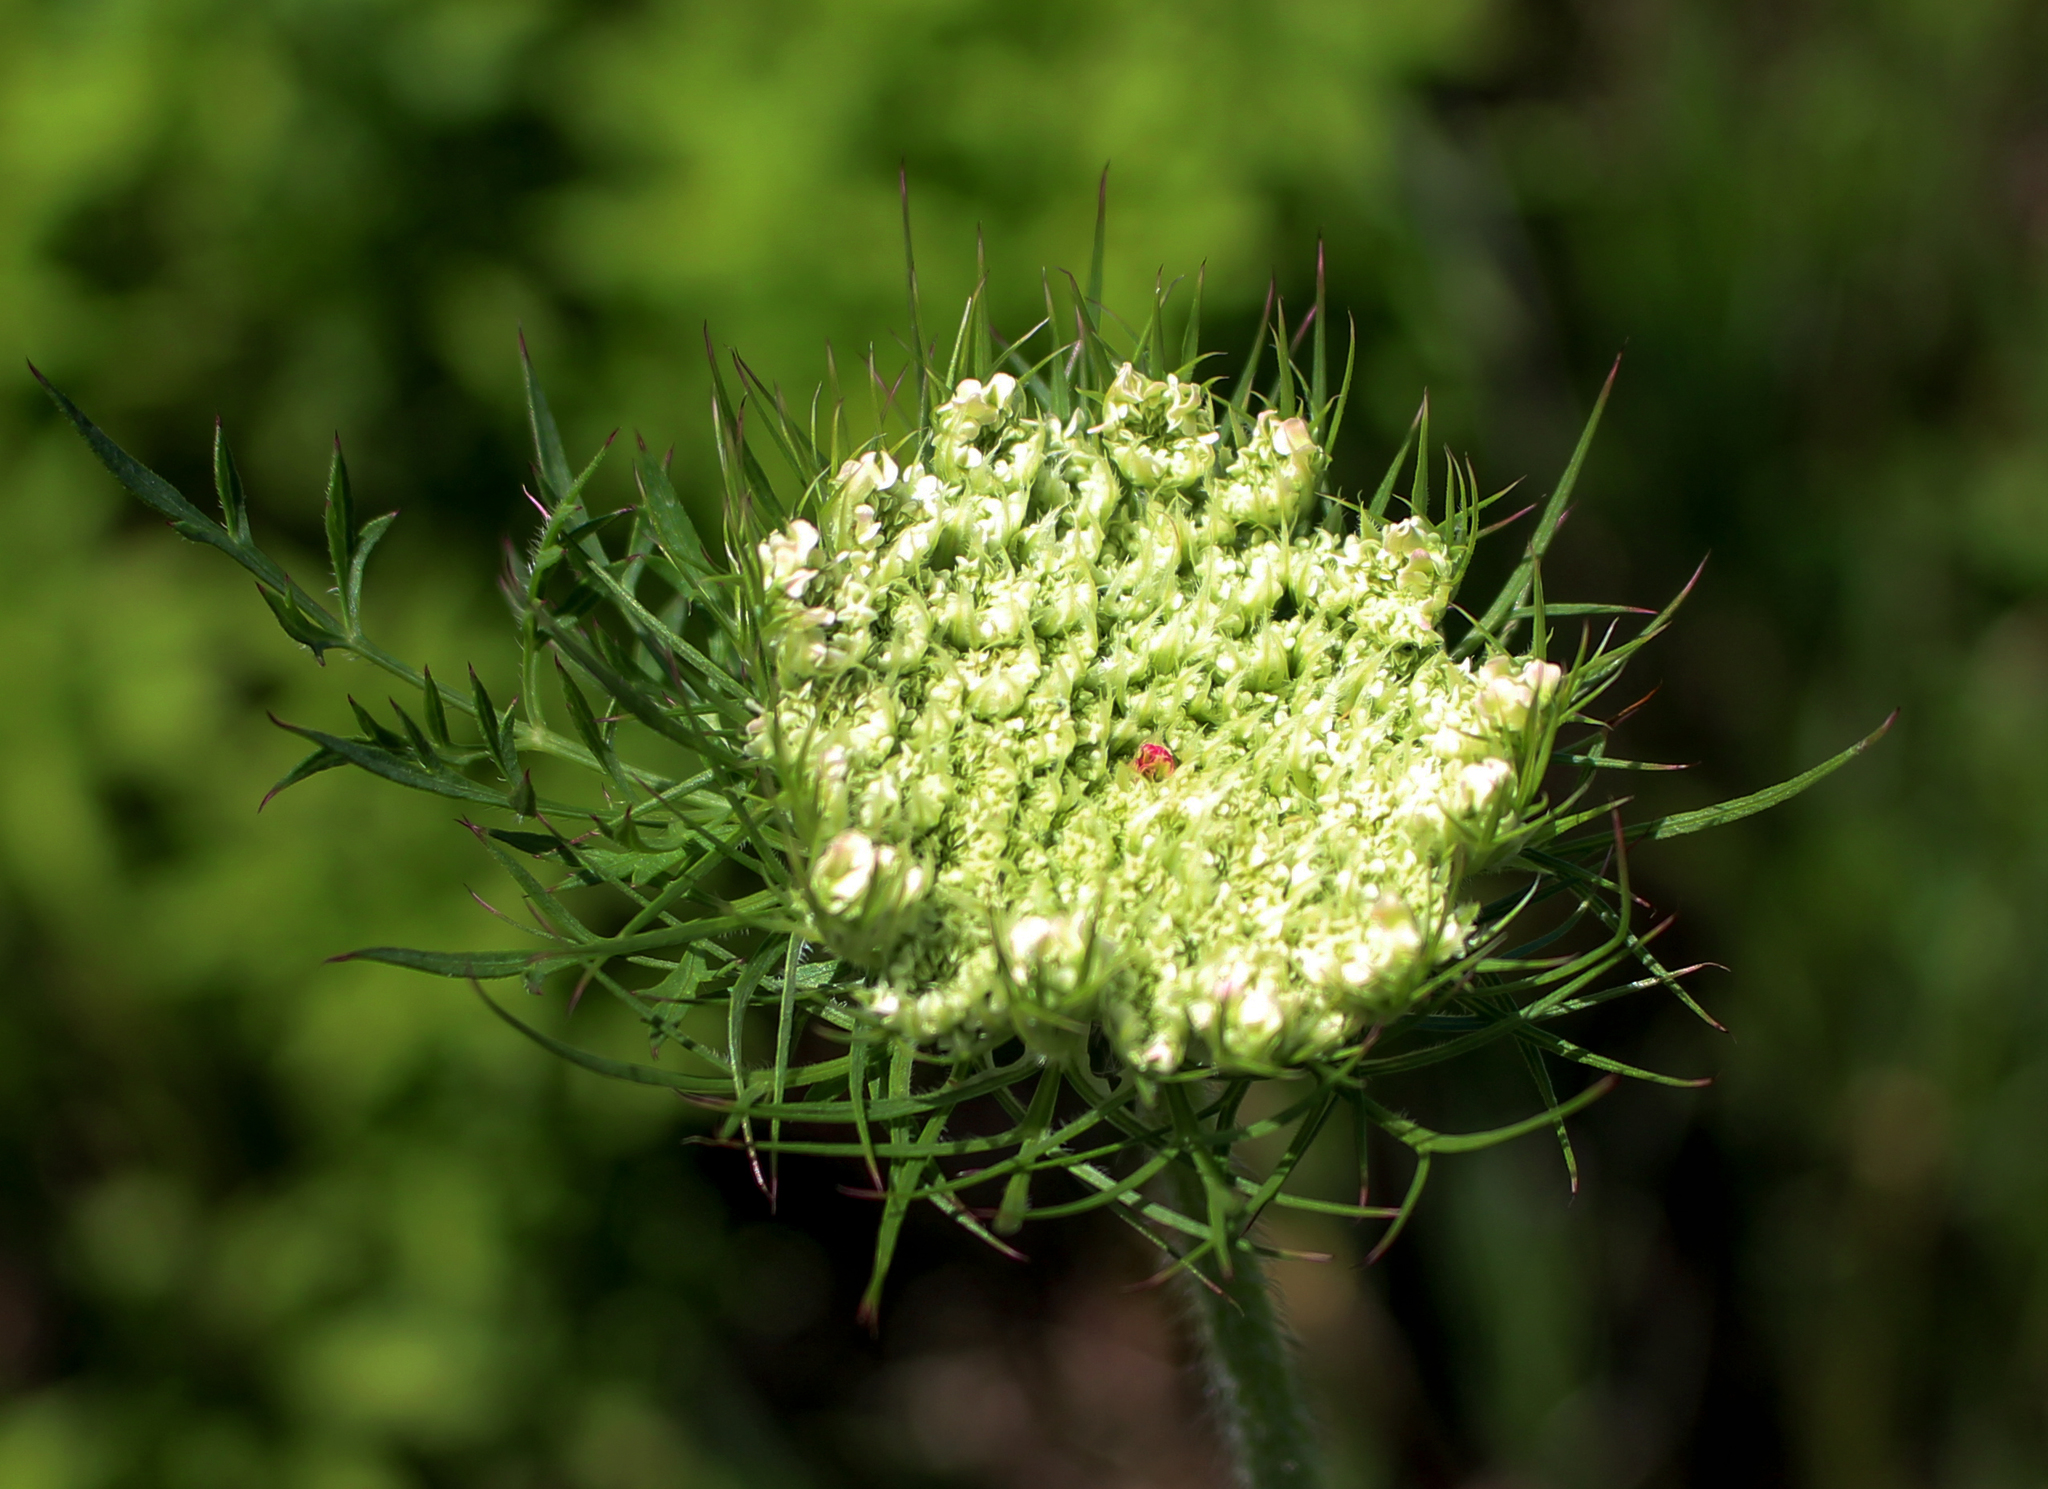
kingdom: Plantae
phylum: Tracheophyta
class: Magnoliopsida
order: Apiales
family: Apiaceae
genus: Daucus
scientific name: Daucus carota
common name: Wild carrot
